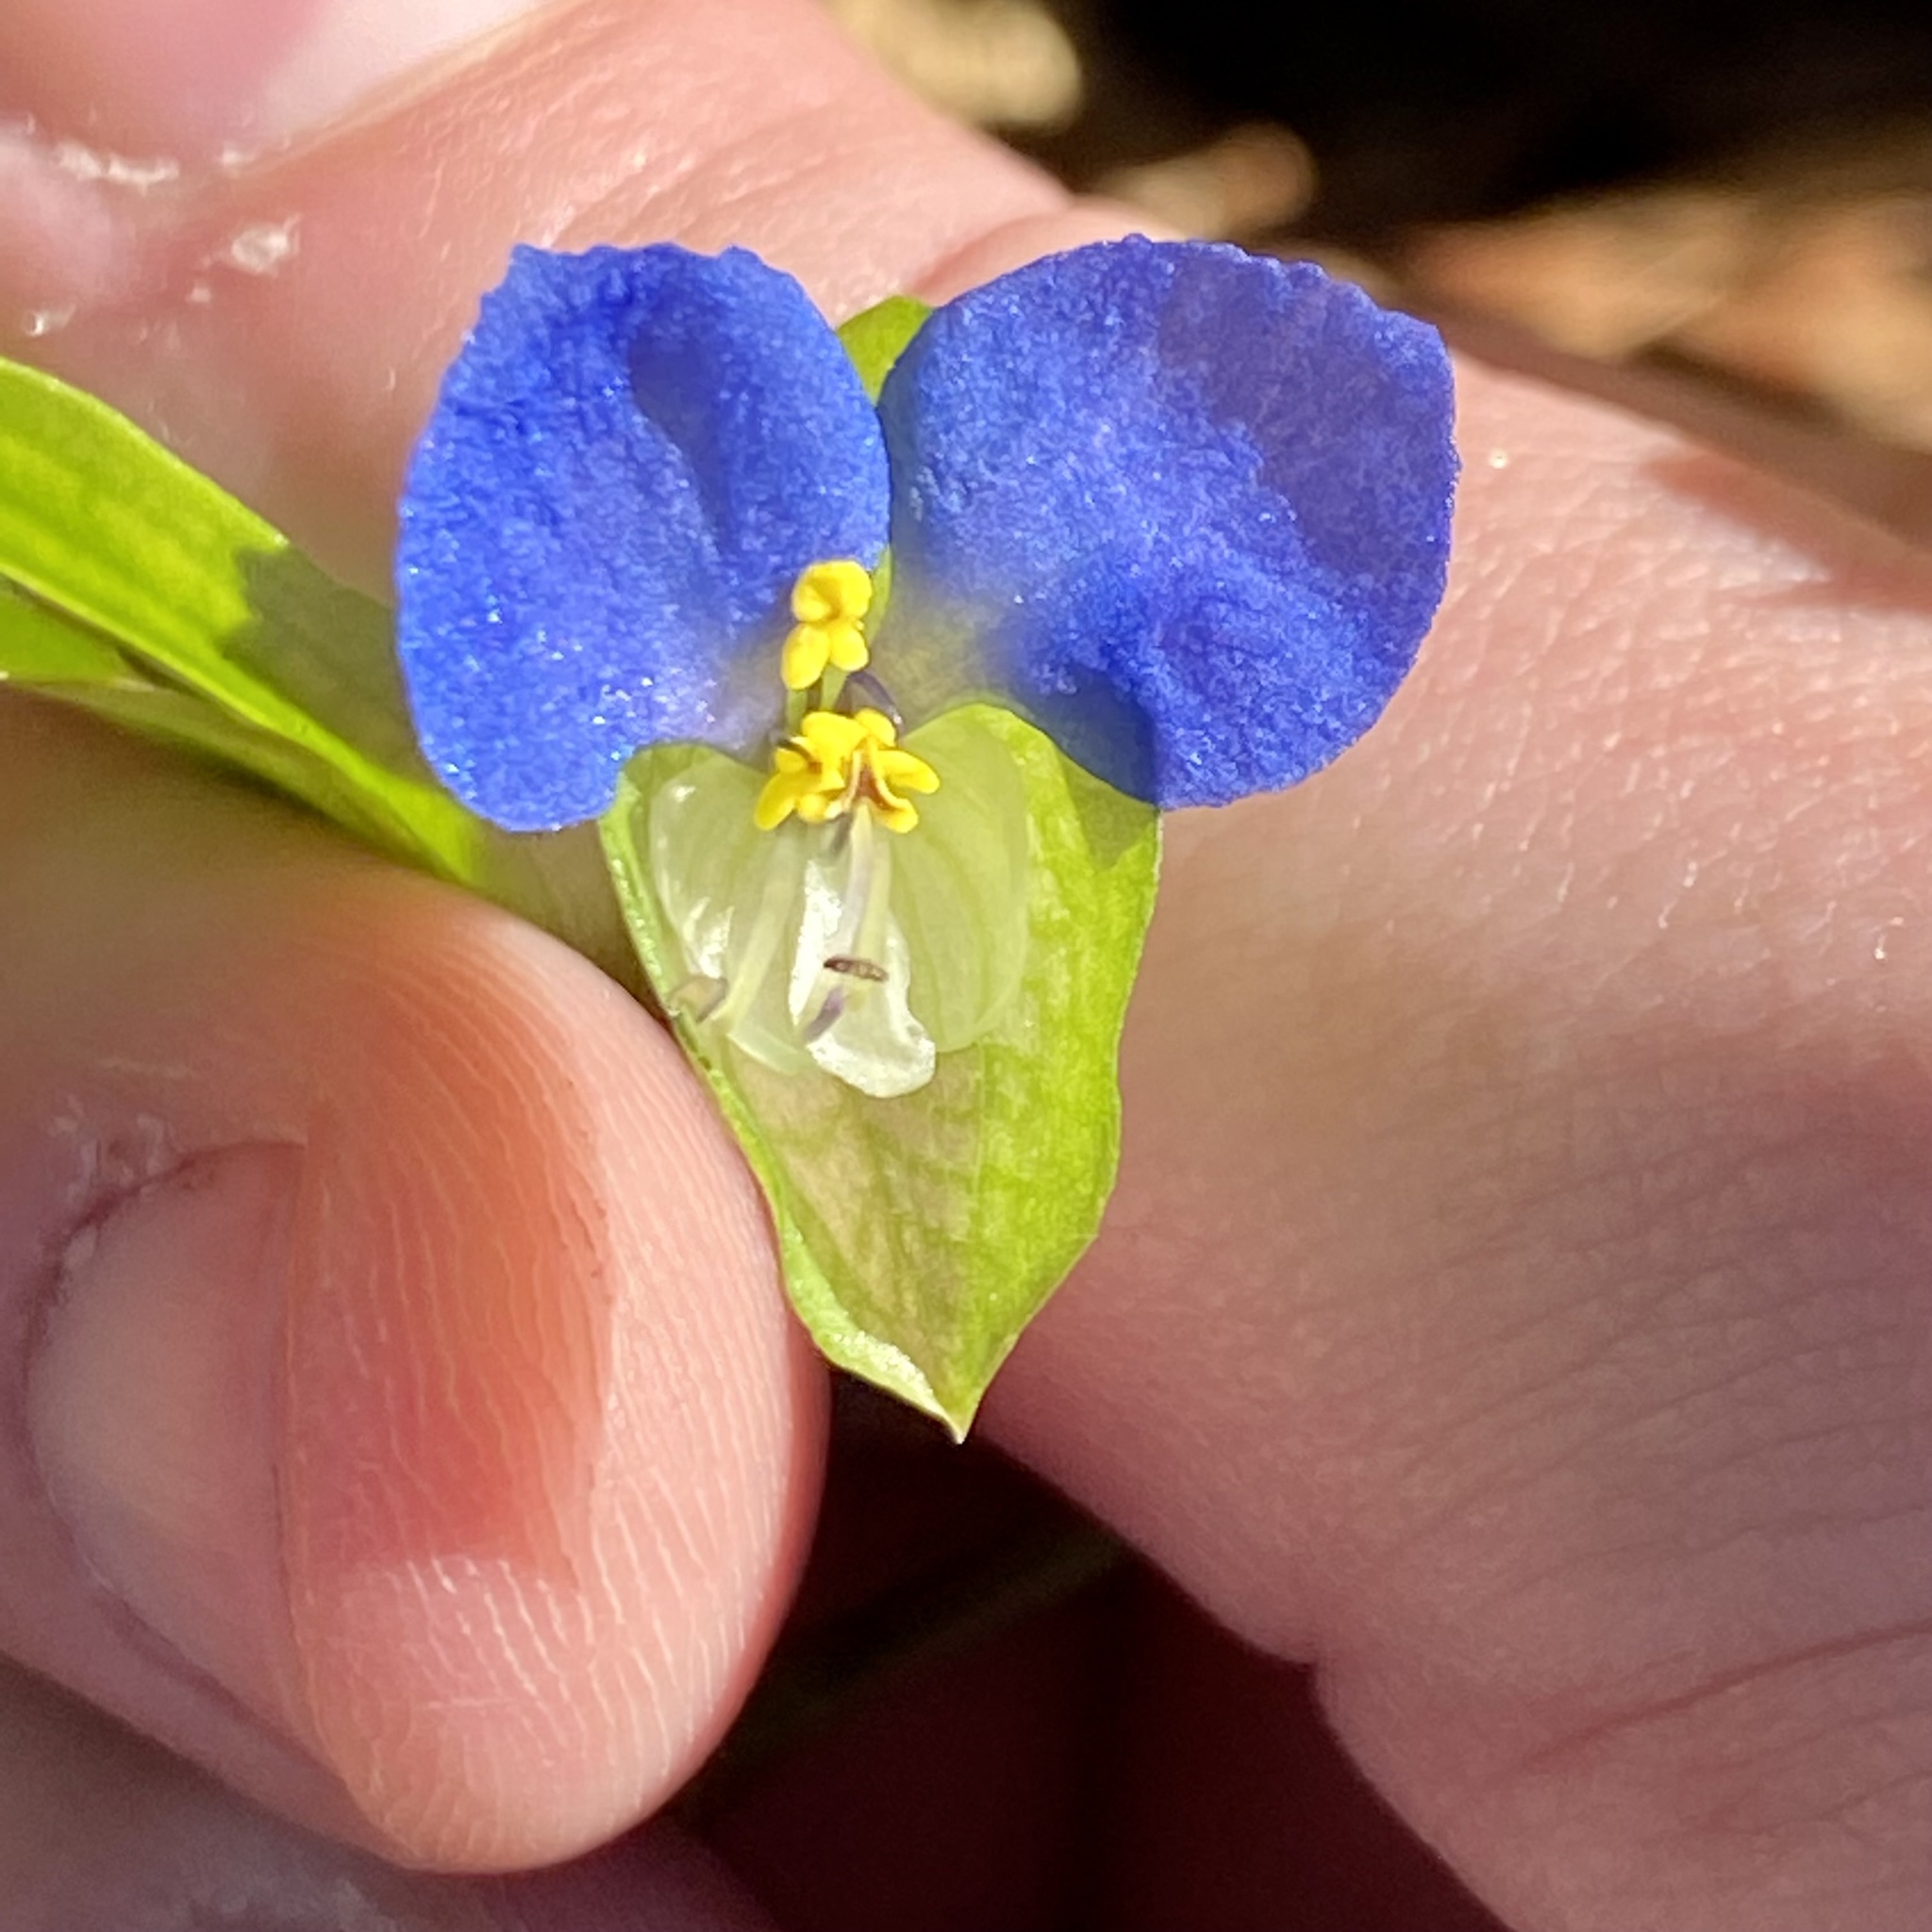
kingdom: Plantae
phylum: Tracheophyta
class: Liliopsida
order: Commelinales
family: Commelinaceae
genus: Commelina
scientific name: Commelina communis
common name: Asiatic dayflower
